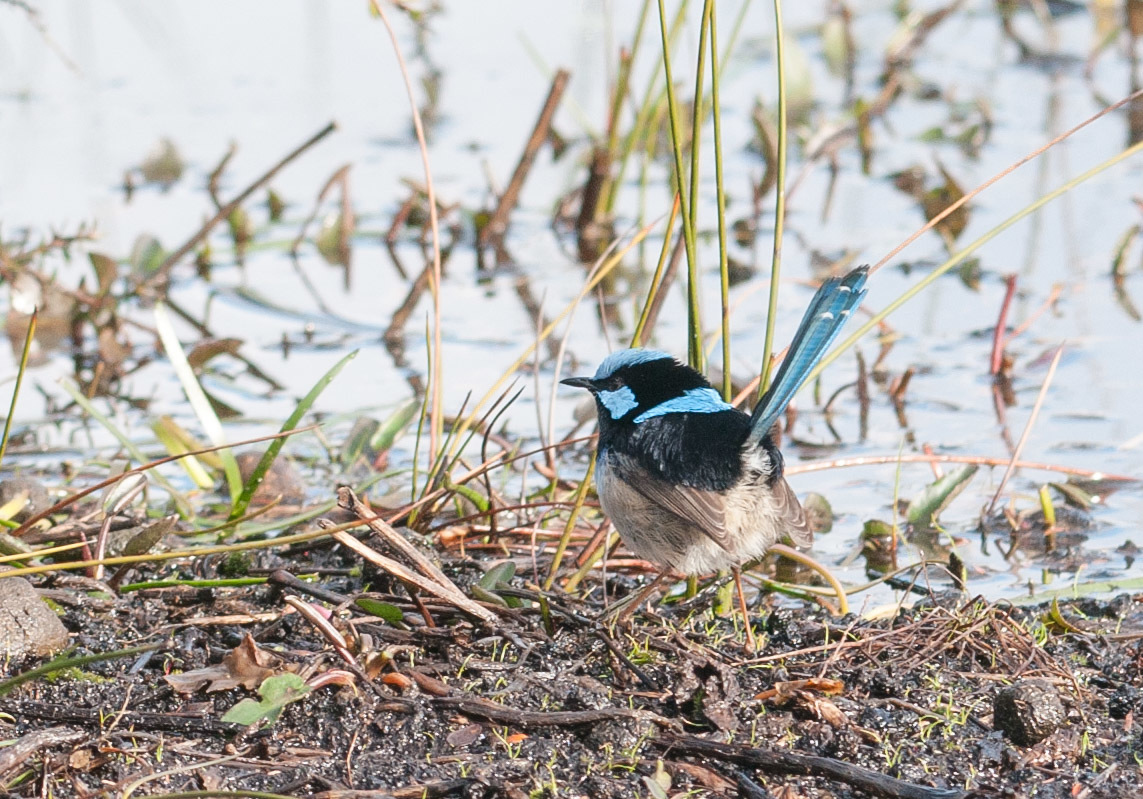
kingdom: Animalia
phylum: Chordata
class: Aves
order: Passeriformes
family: Maluridae
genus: Malurus
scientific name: Malurus cyaneus
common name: Superb fairywren
